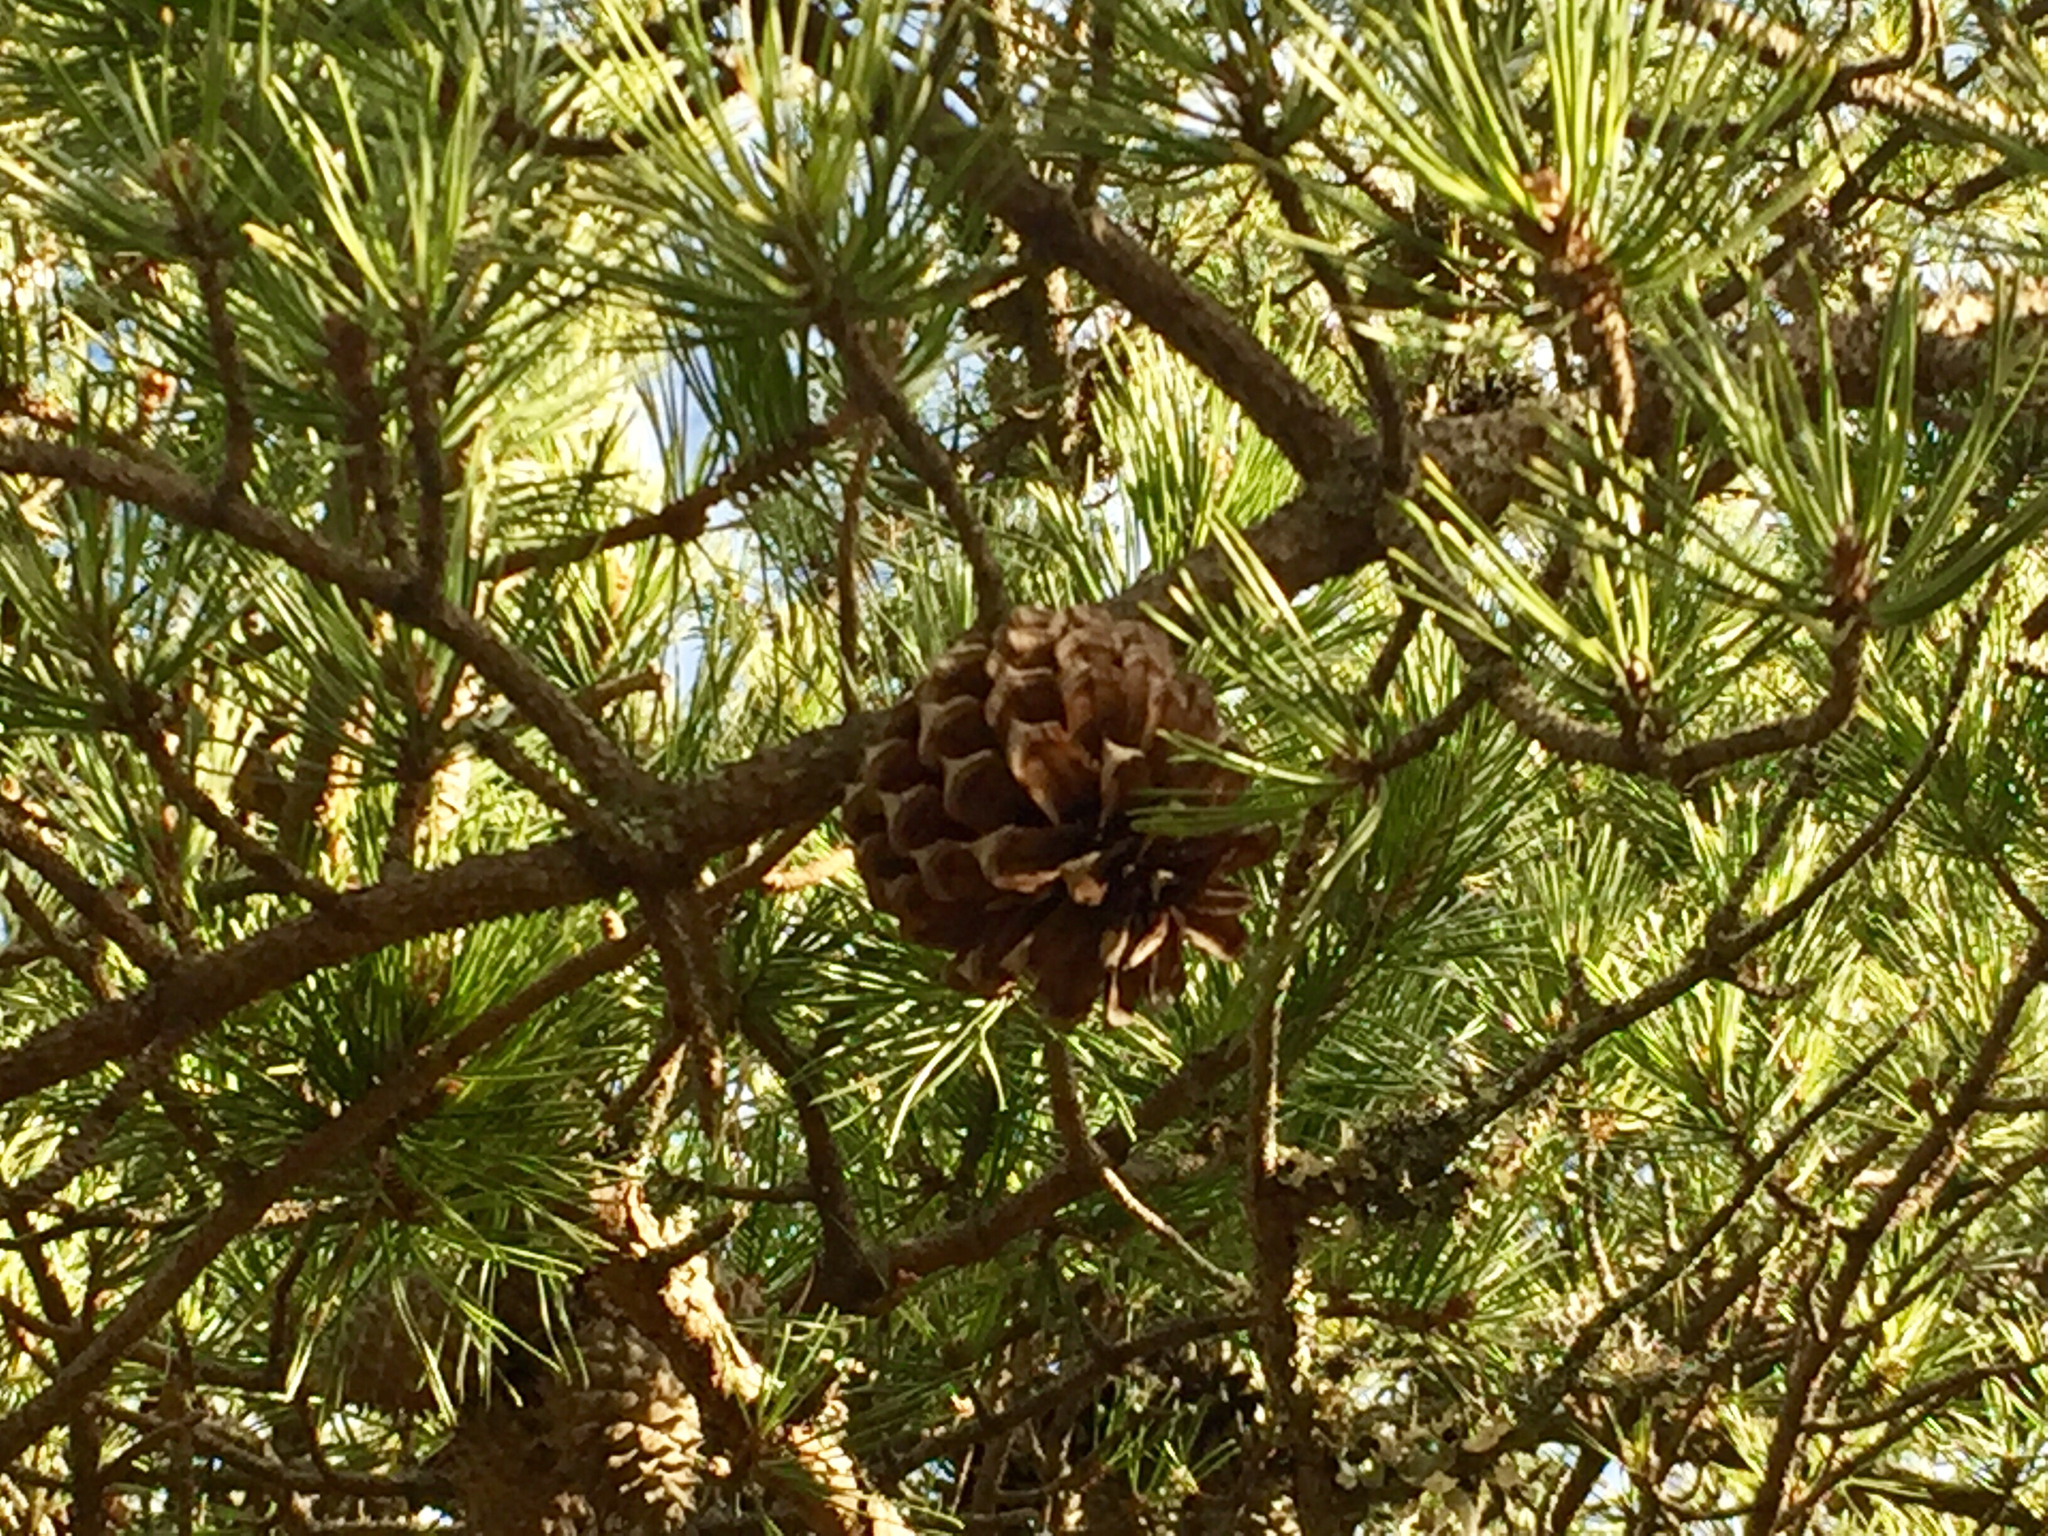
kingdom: Plantae
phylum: Tracheophyta
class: Pinopsida
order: Pinales
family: Pinaceae
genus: Pinus
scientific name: Pinus pungens
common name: Hickory pine
